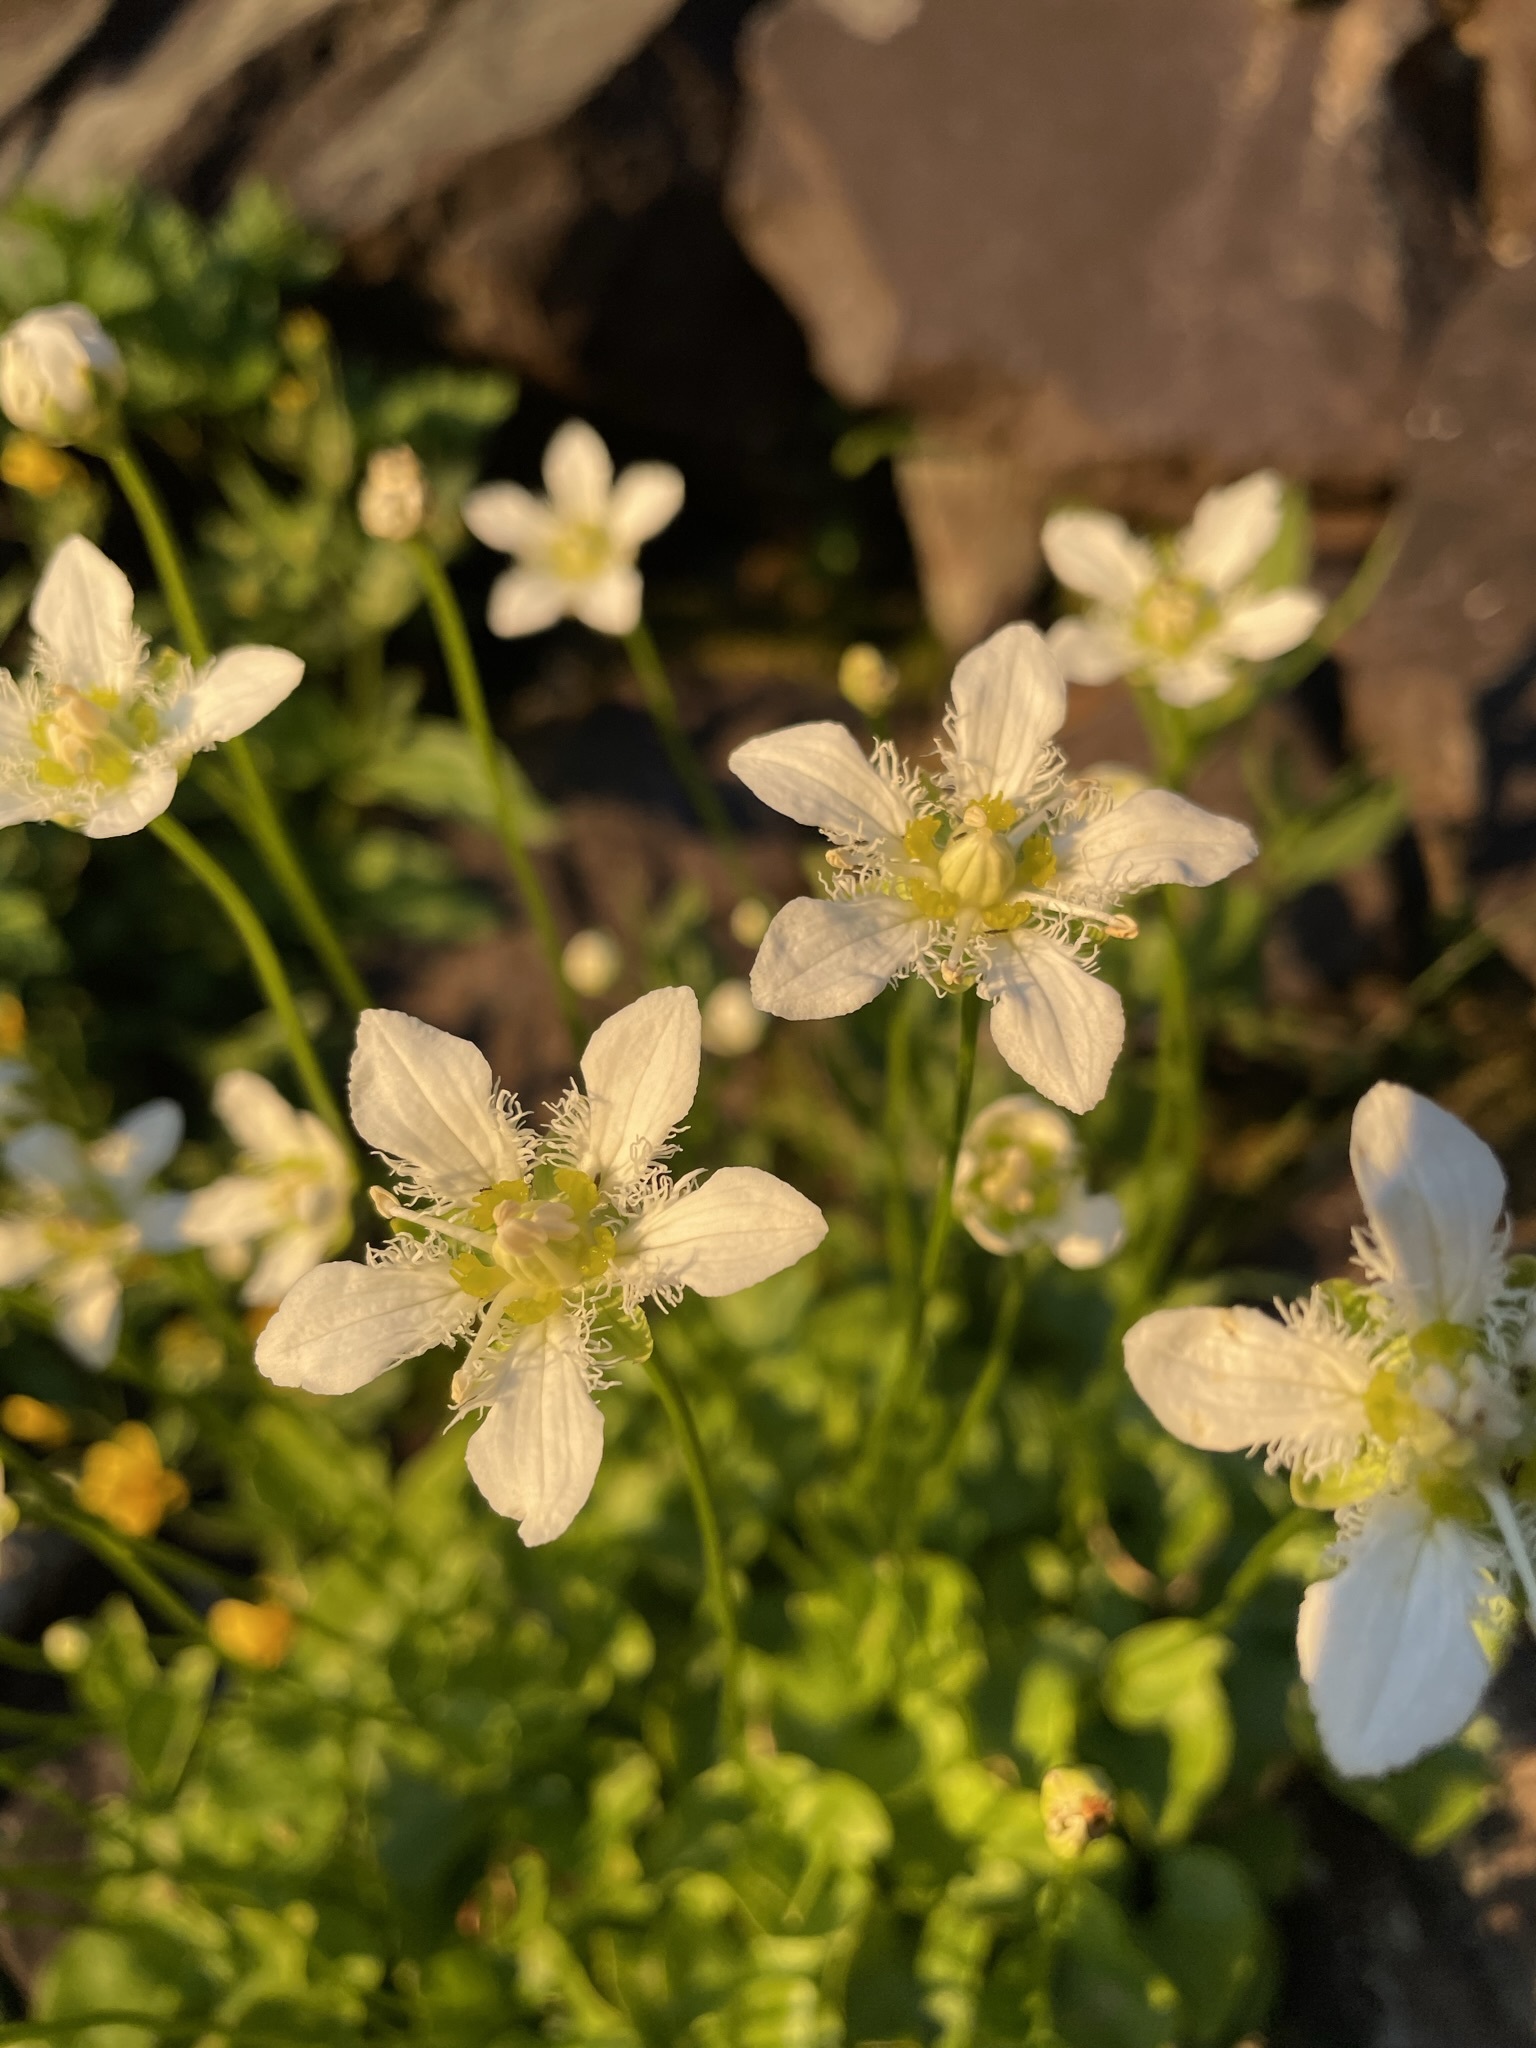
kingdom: Plantae
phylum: Tracheophyta
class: Magnoliopsida
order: Celastrales
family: Parnassiaceae
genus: Parnassia
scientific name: Parnassia fimbriata
